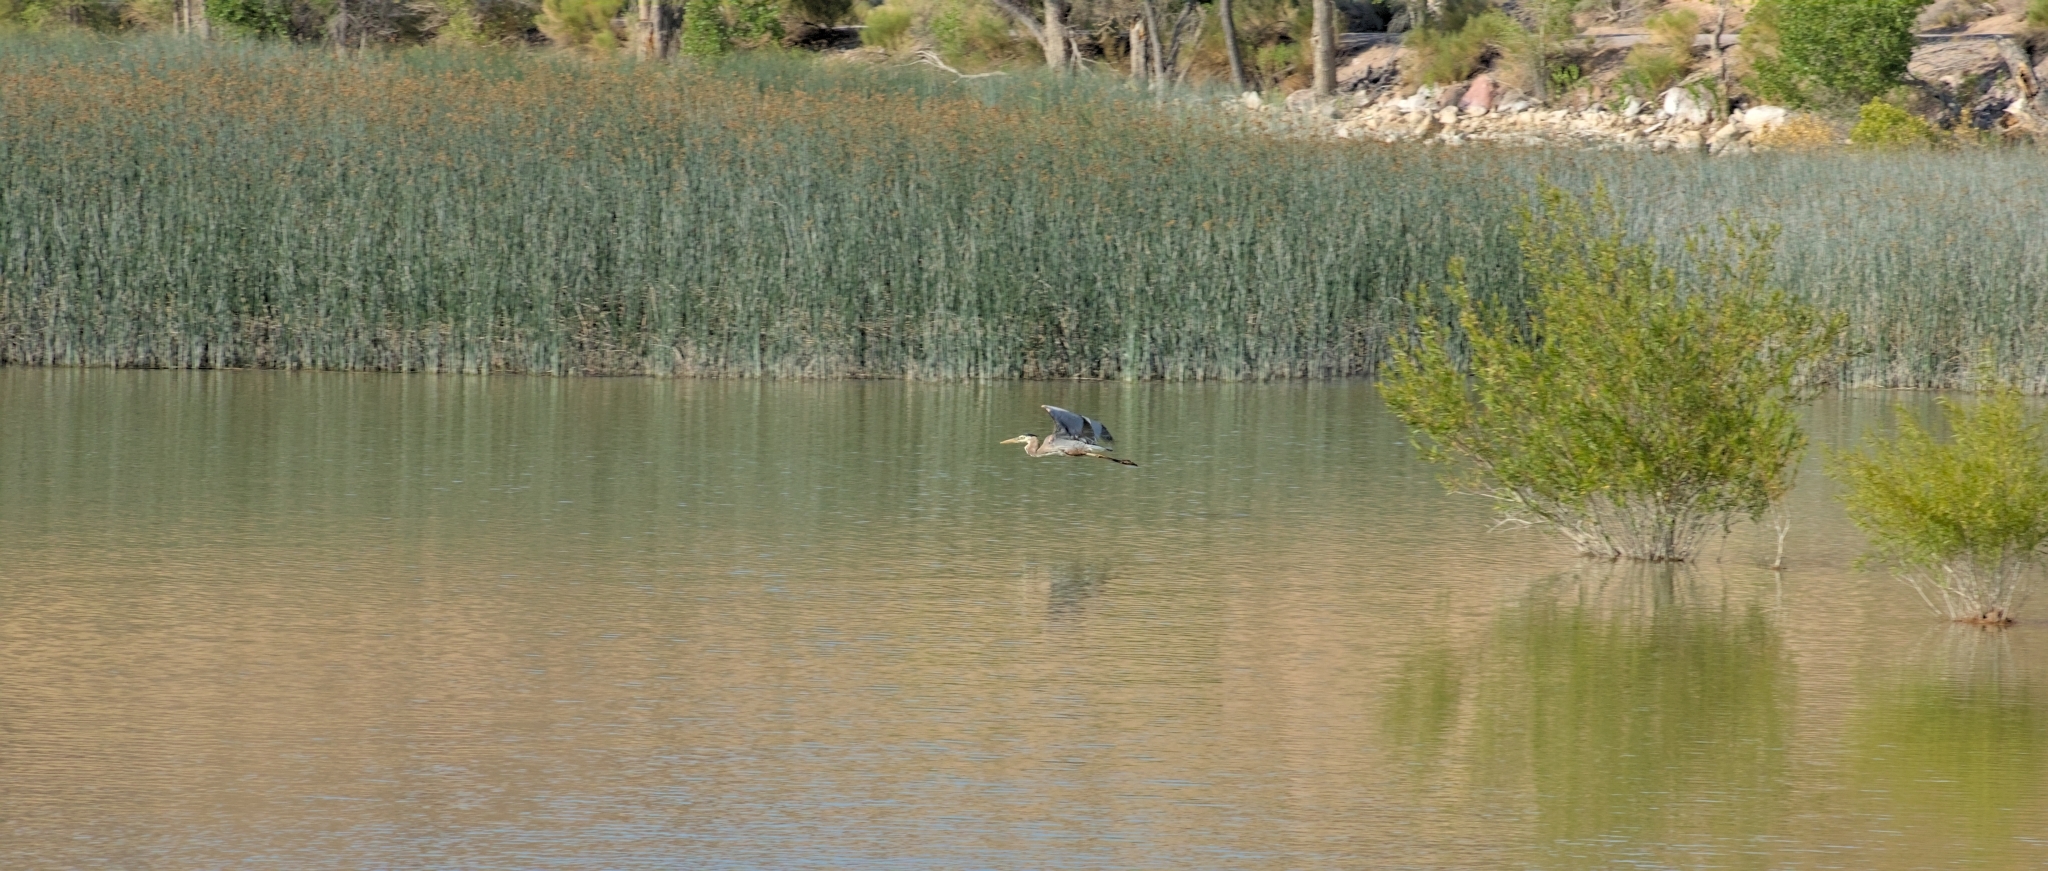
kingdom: Animalia
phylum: Chordata
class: Aves
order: Pelecaniformes
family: Ardeidae
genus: Ardea
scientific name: Ardea herodias
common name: Great blue heron
